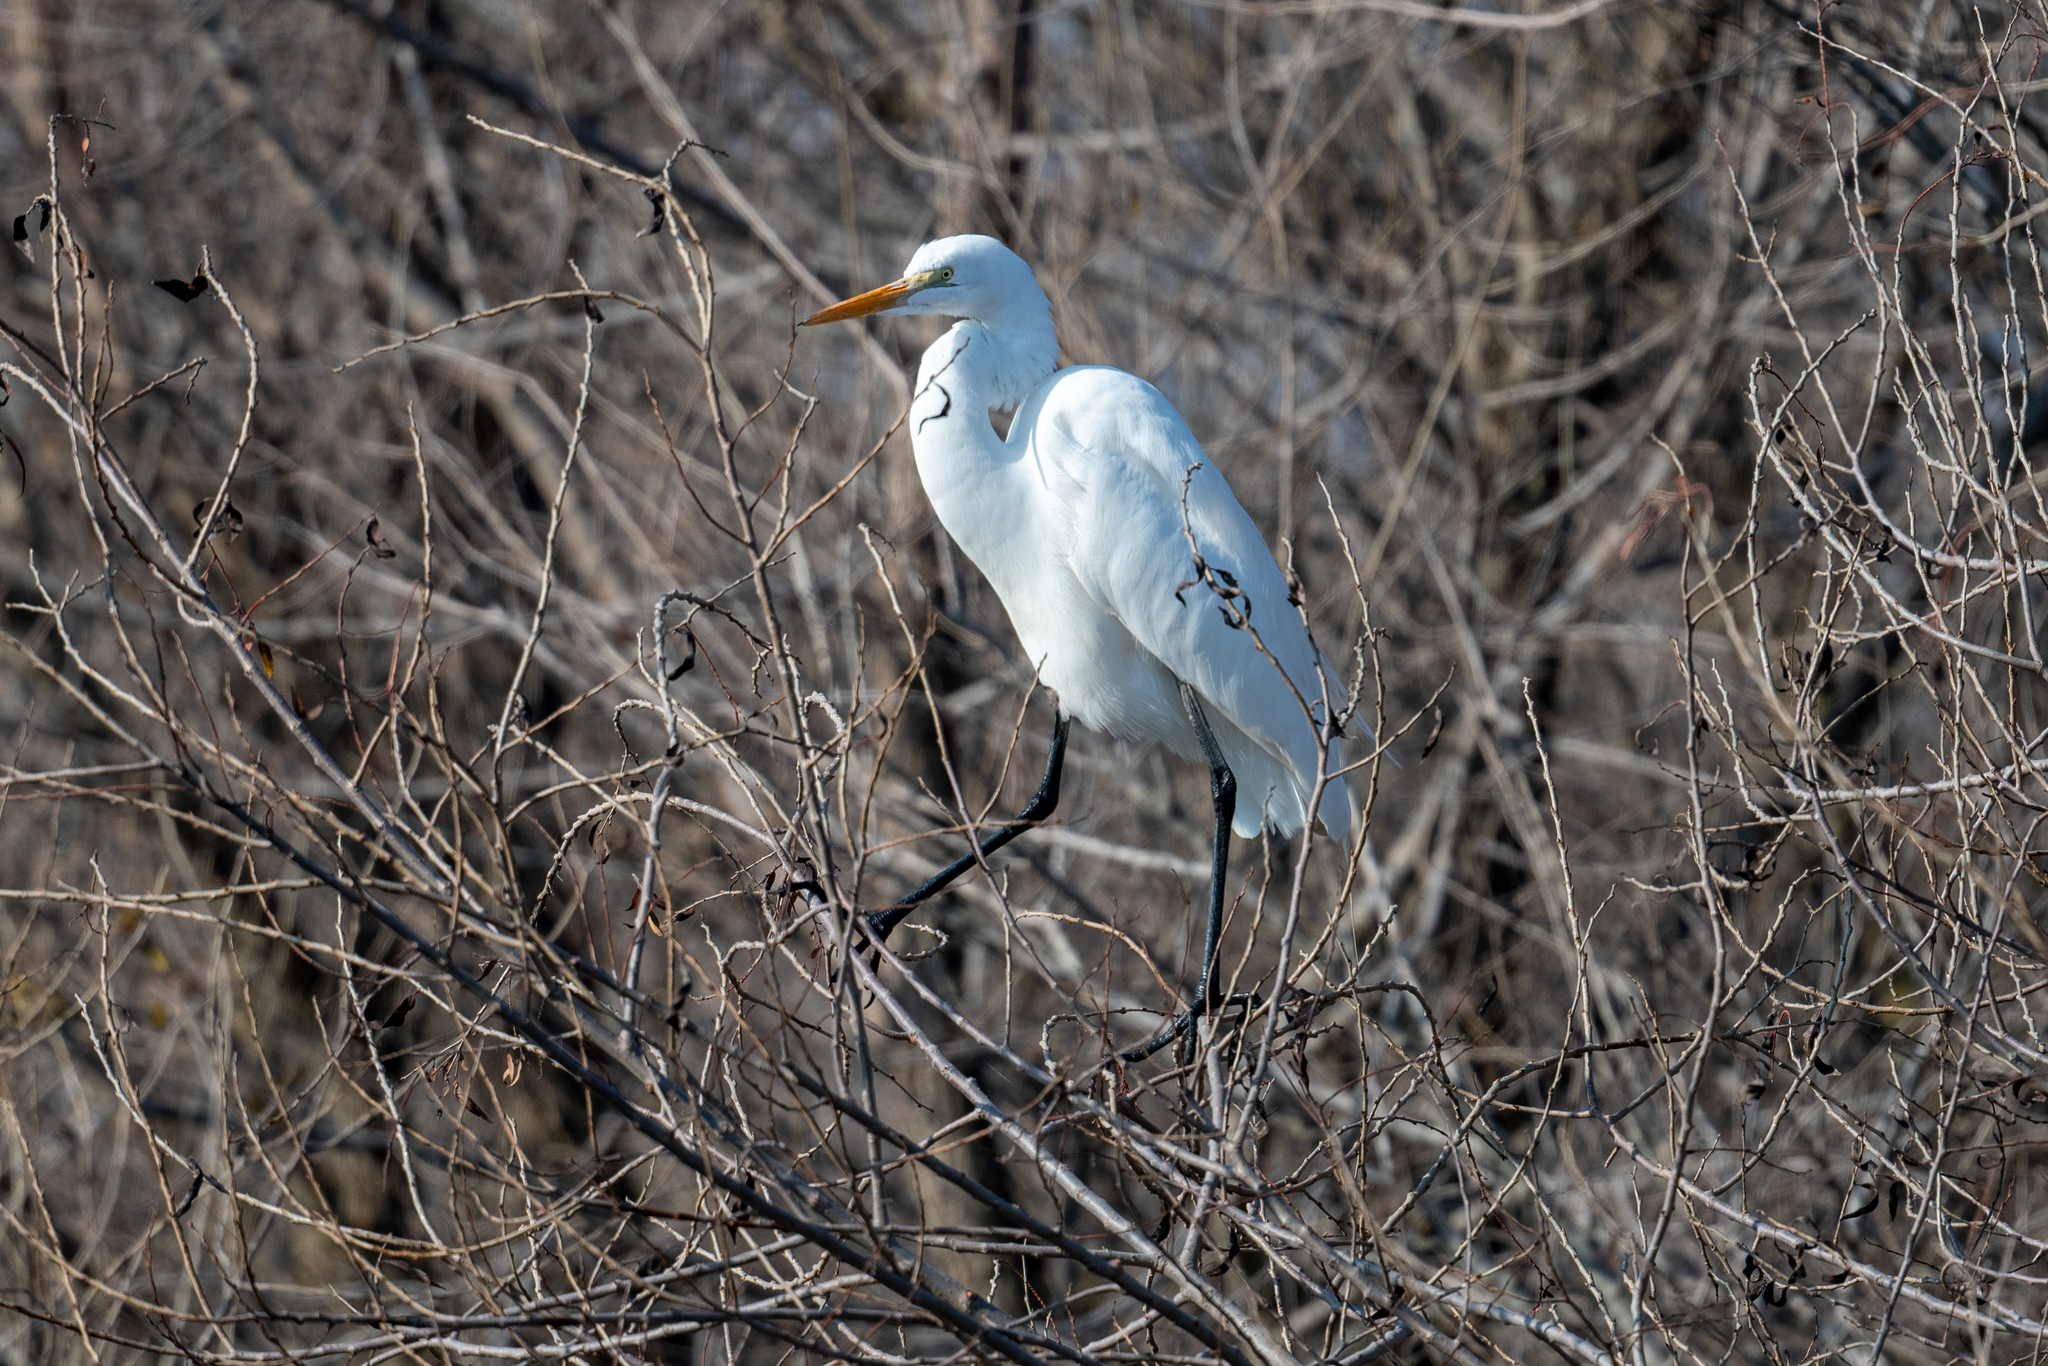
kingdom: Animalia
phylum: Chordata
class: Aves
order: Pelecaniformes
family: Ardeidae
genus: Ardea
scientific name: Ardea alba
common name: Great egret
